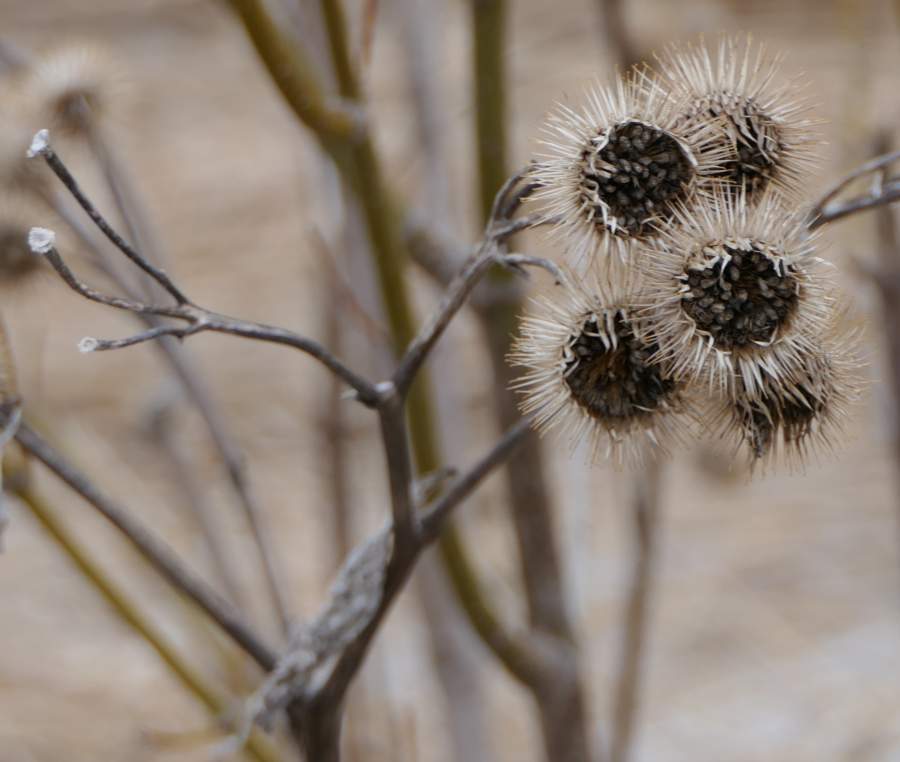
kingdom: Plantae
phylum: Tracheophyta
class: Magnoliopsida
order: Asterales
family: Asteraceae
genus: Arctium
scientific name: Arctium lappa
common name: Greater burdock
